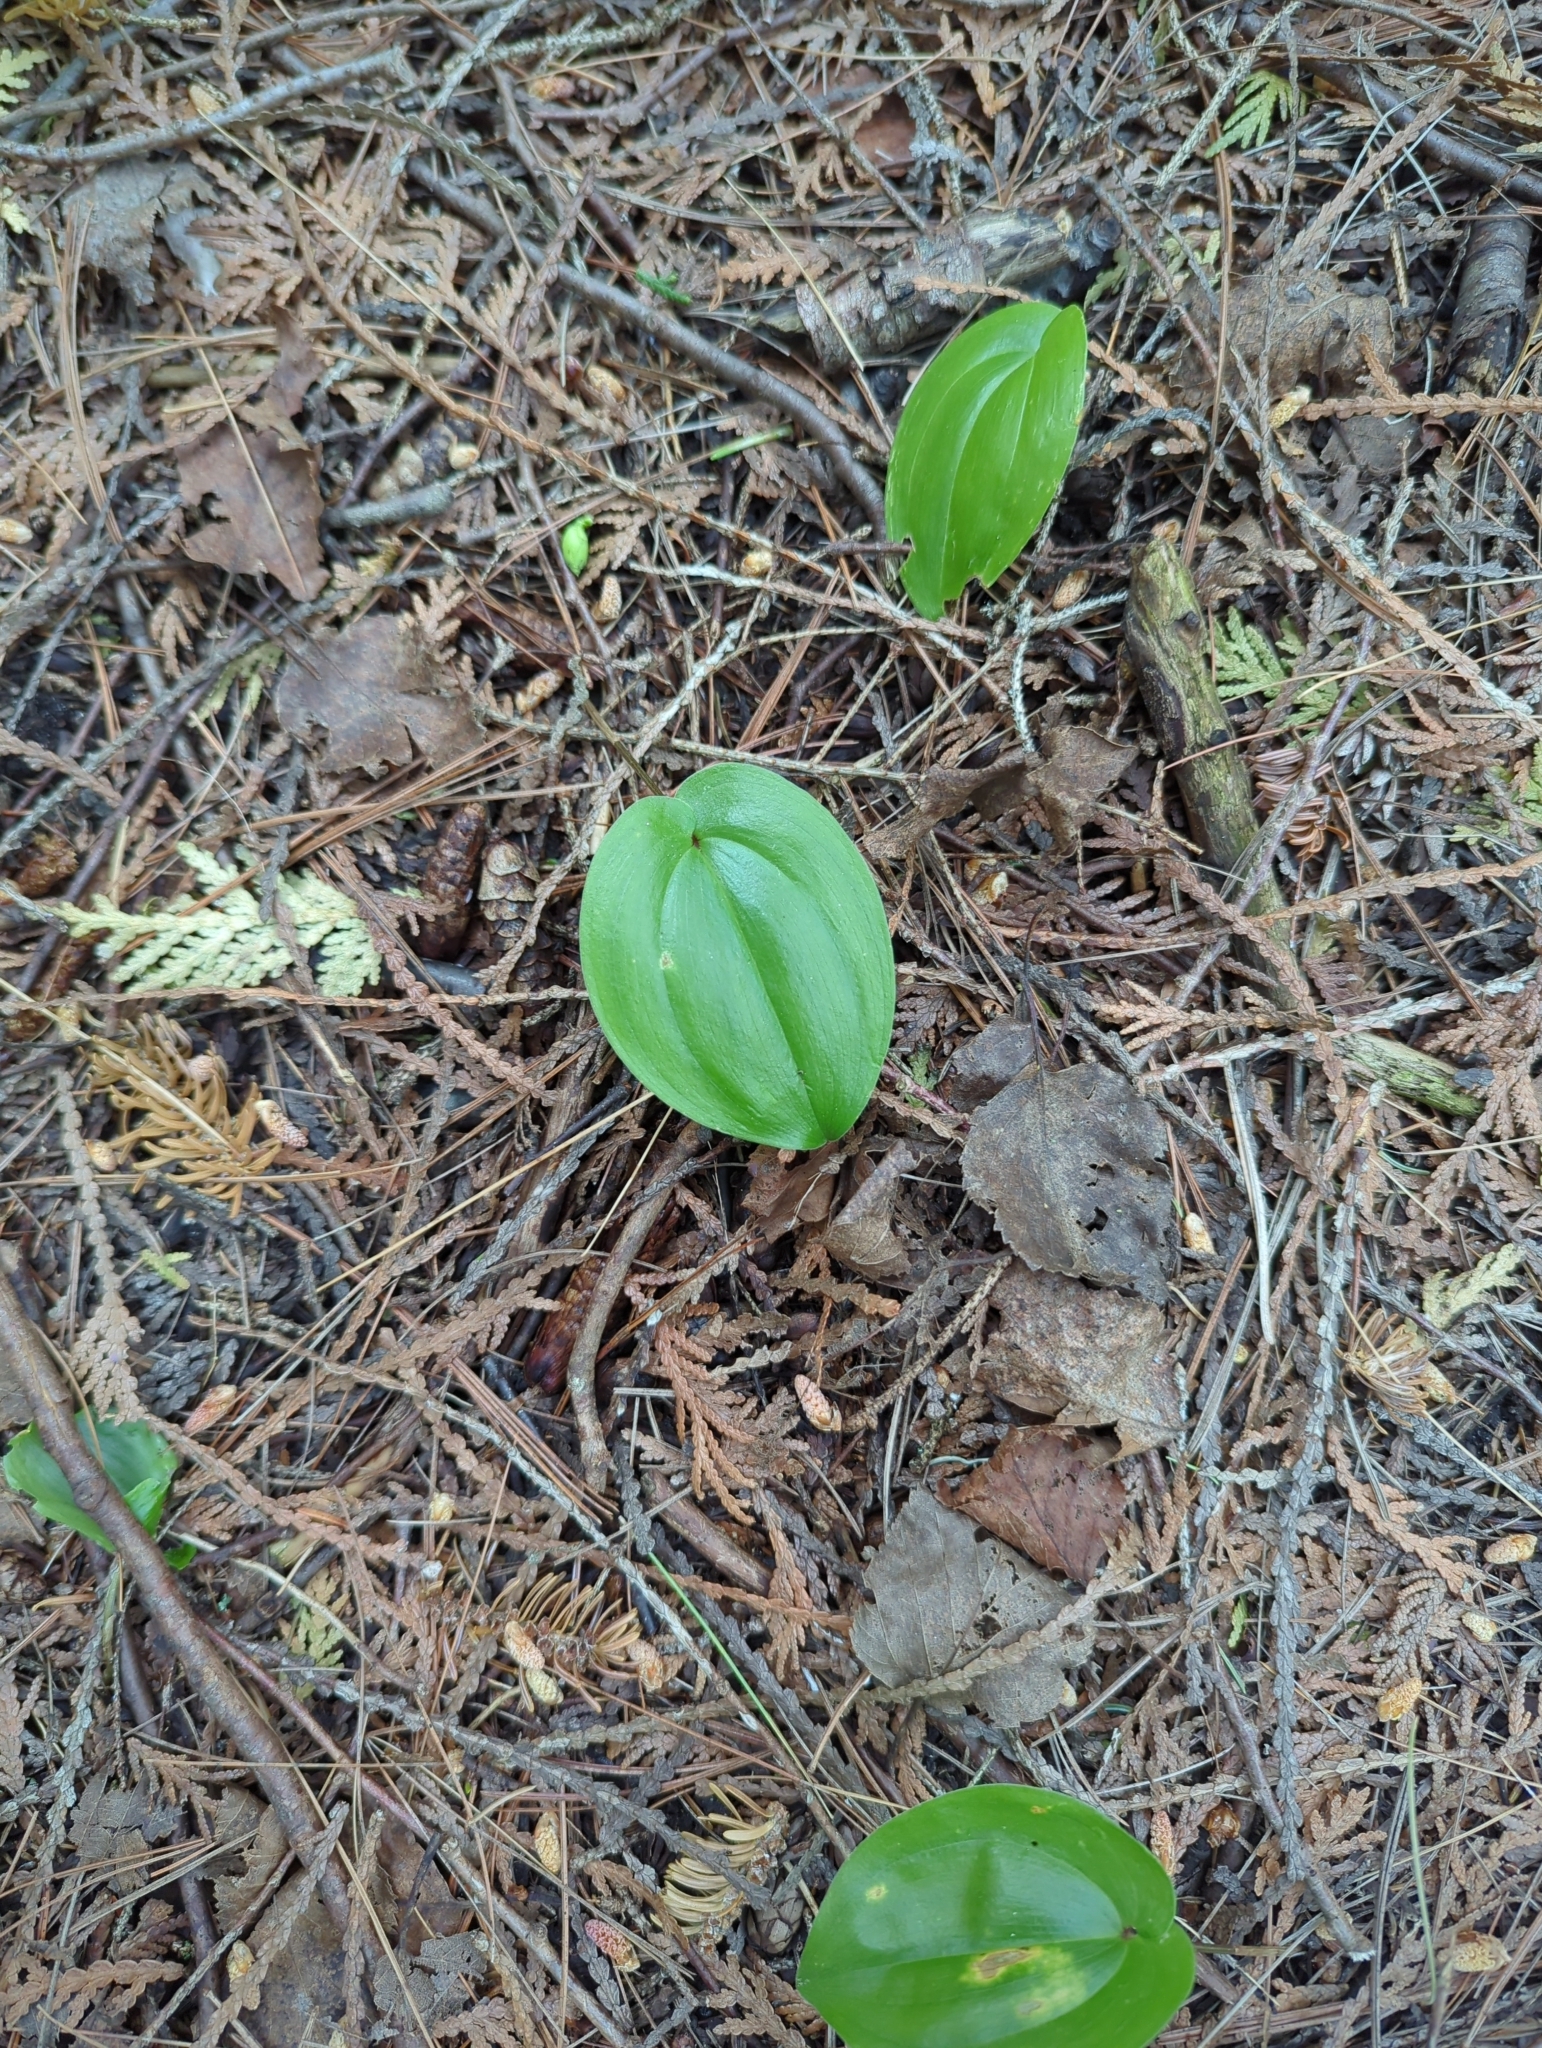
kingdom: Plantae
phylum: Tracheophyta
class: Liliopsida
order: Asparagales
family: Asparagaceae
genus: Maianthemum
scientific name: Maianthemum canadense
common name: False lily-of-the-valley
